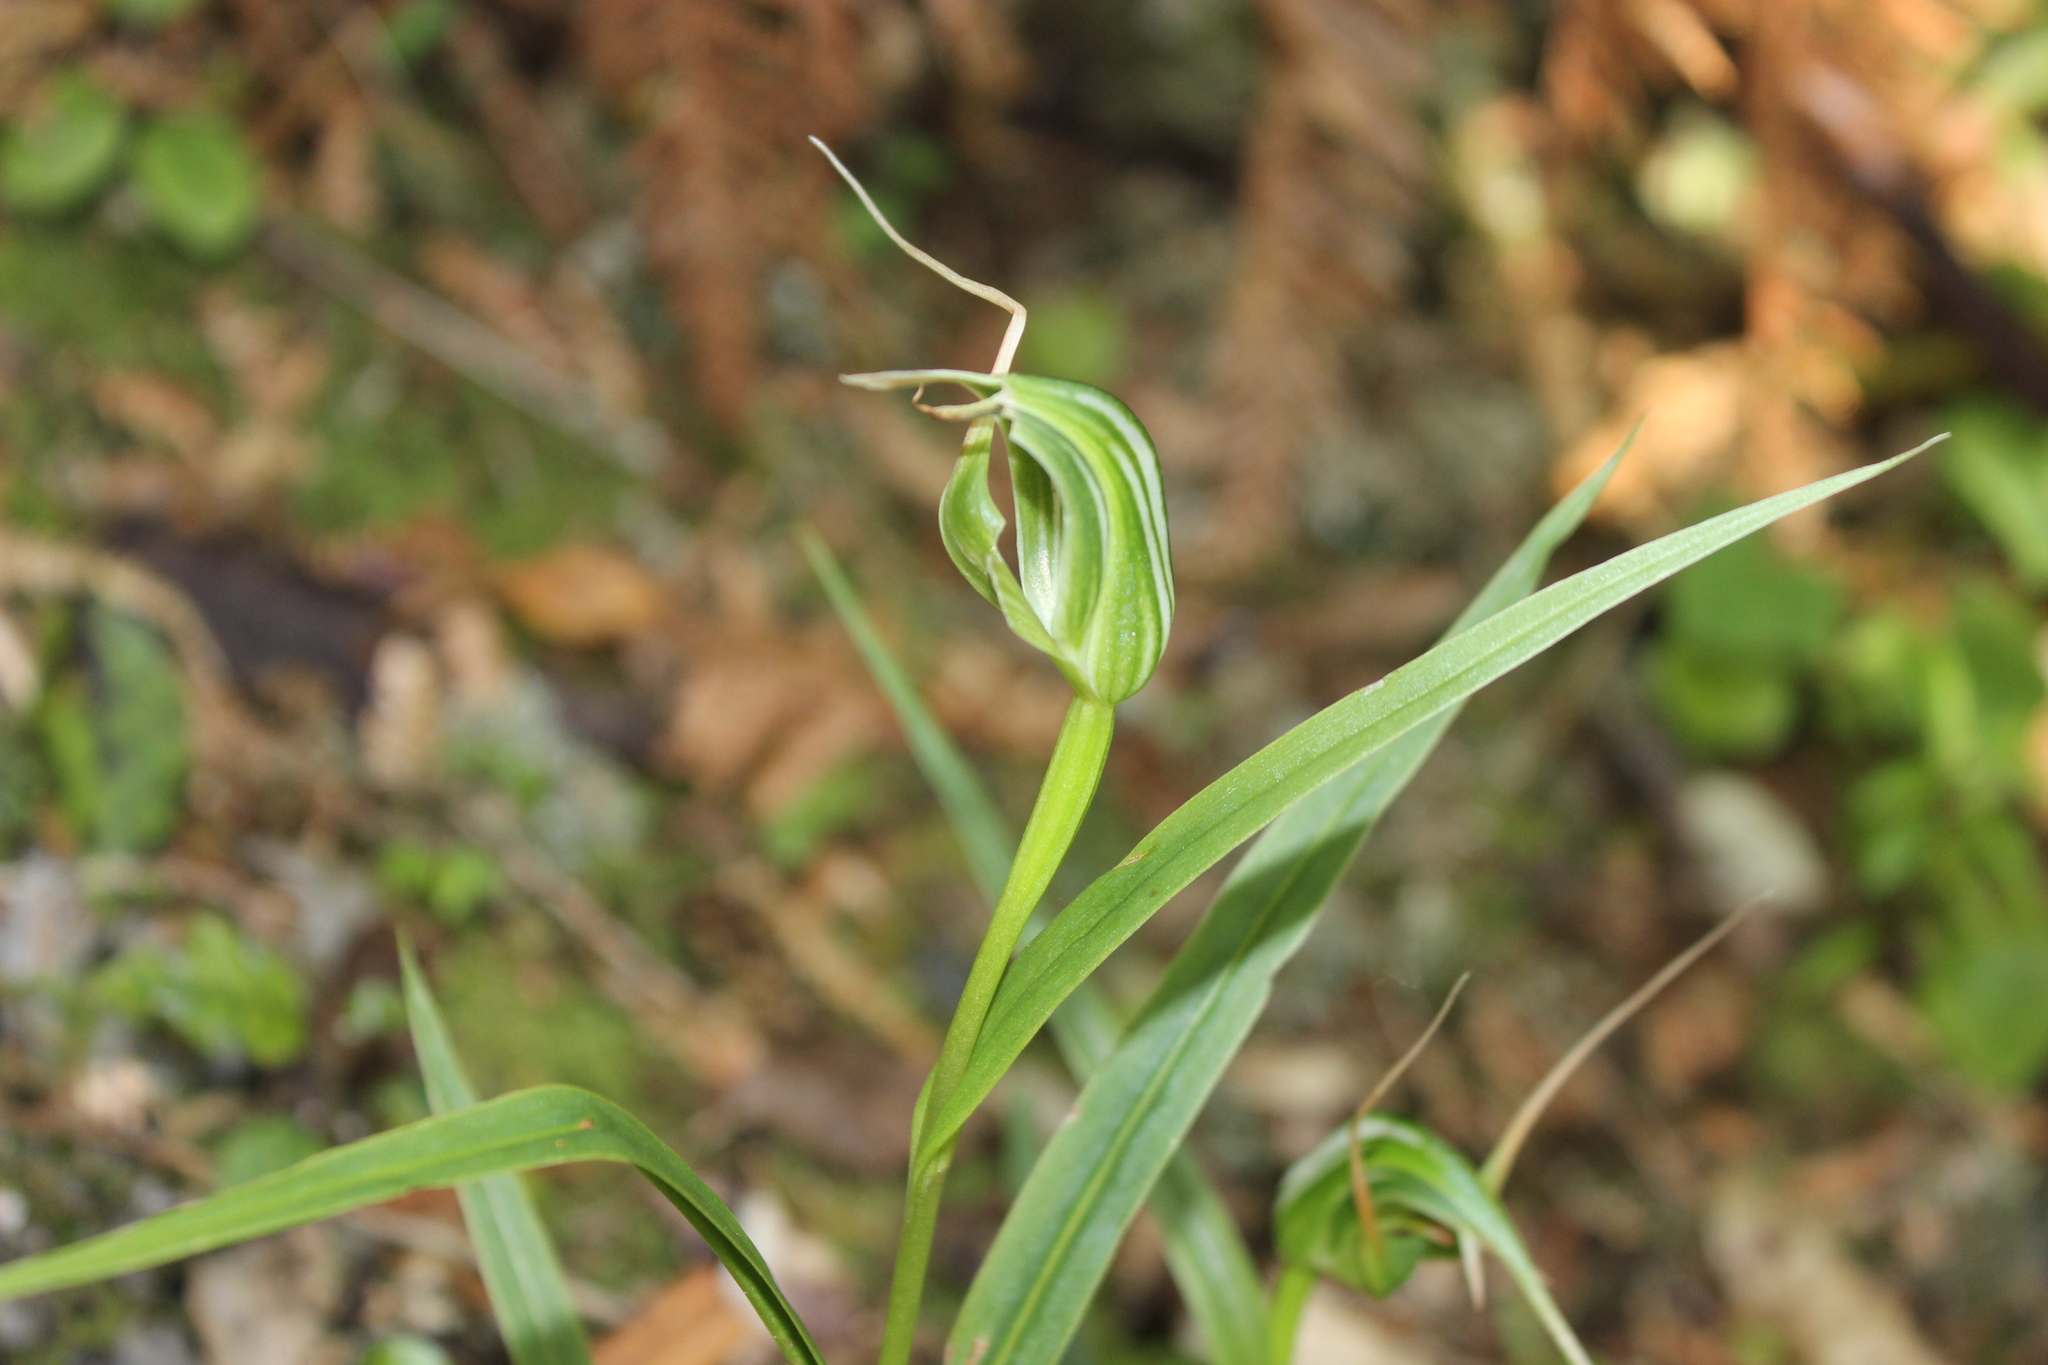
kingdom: Plantae
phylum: Tracheophyta
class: Liliopsida
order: Asparagales
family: Orchidaceae
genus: Pterostylis
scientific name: Pterostylis banksii
